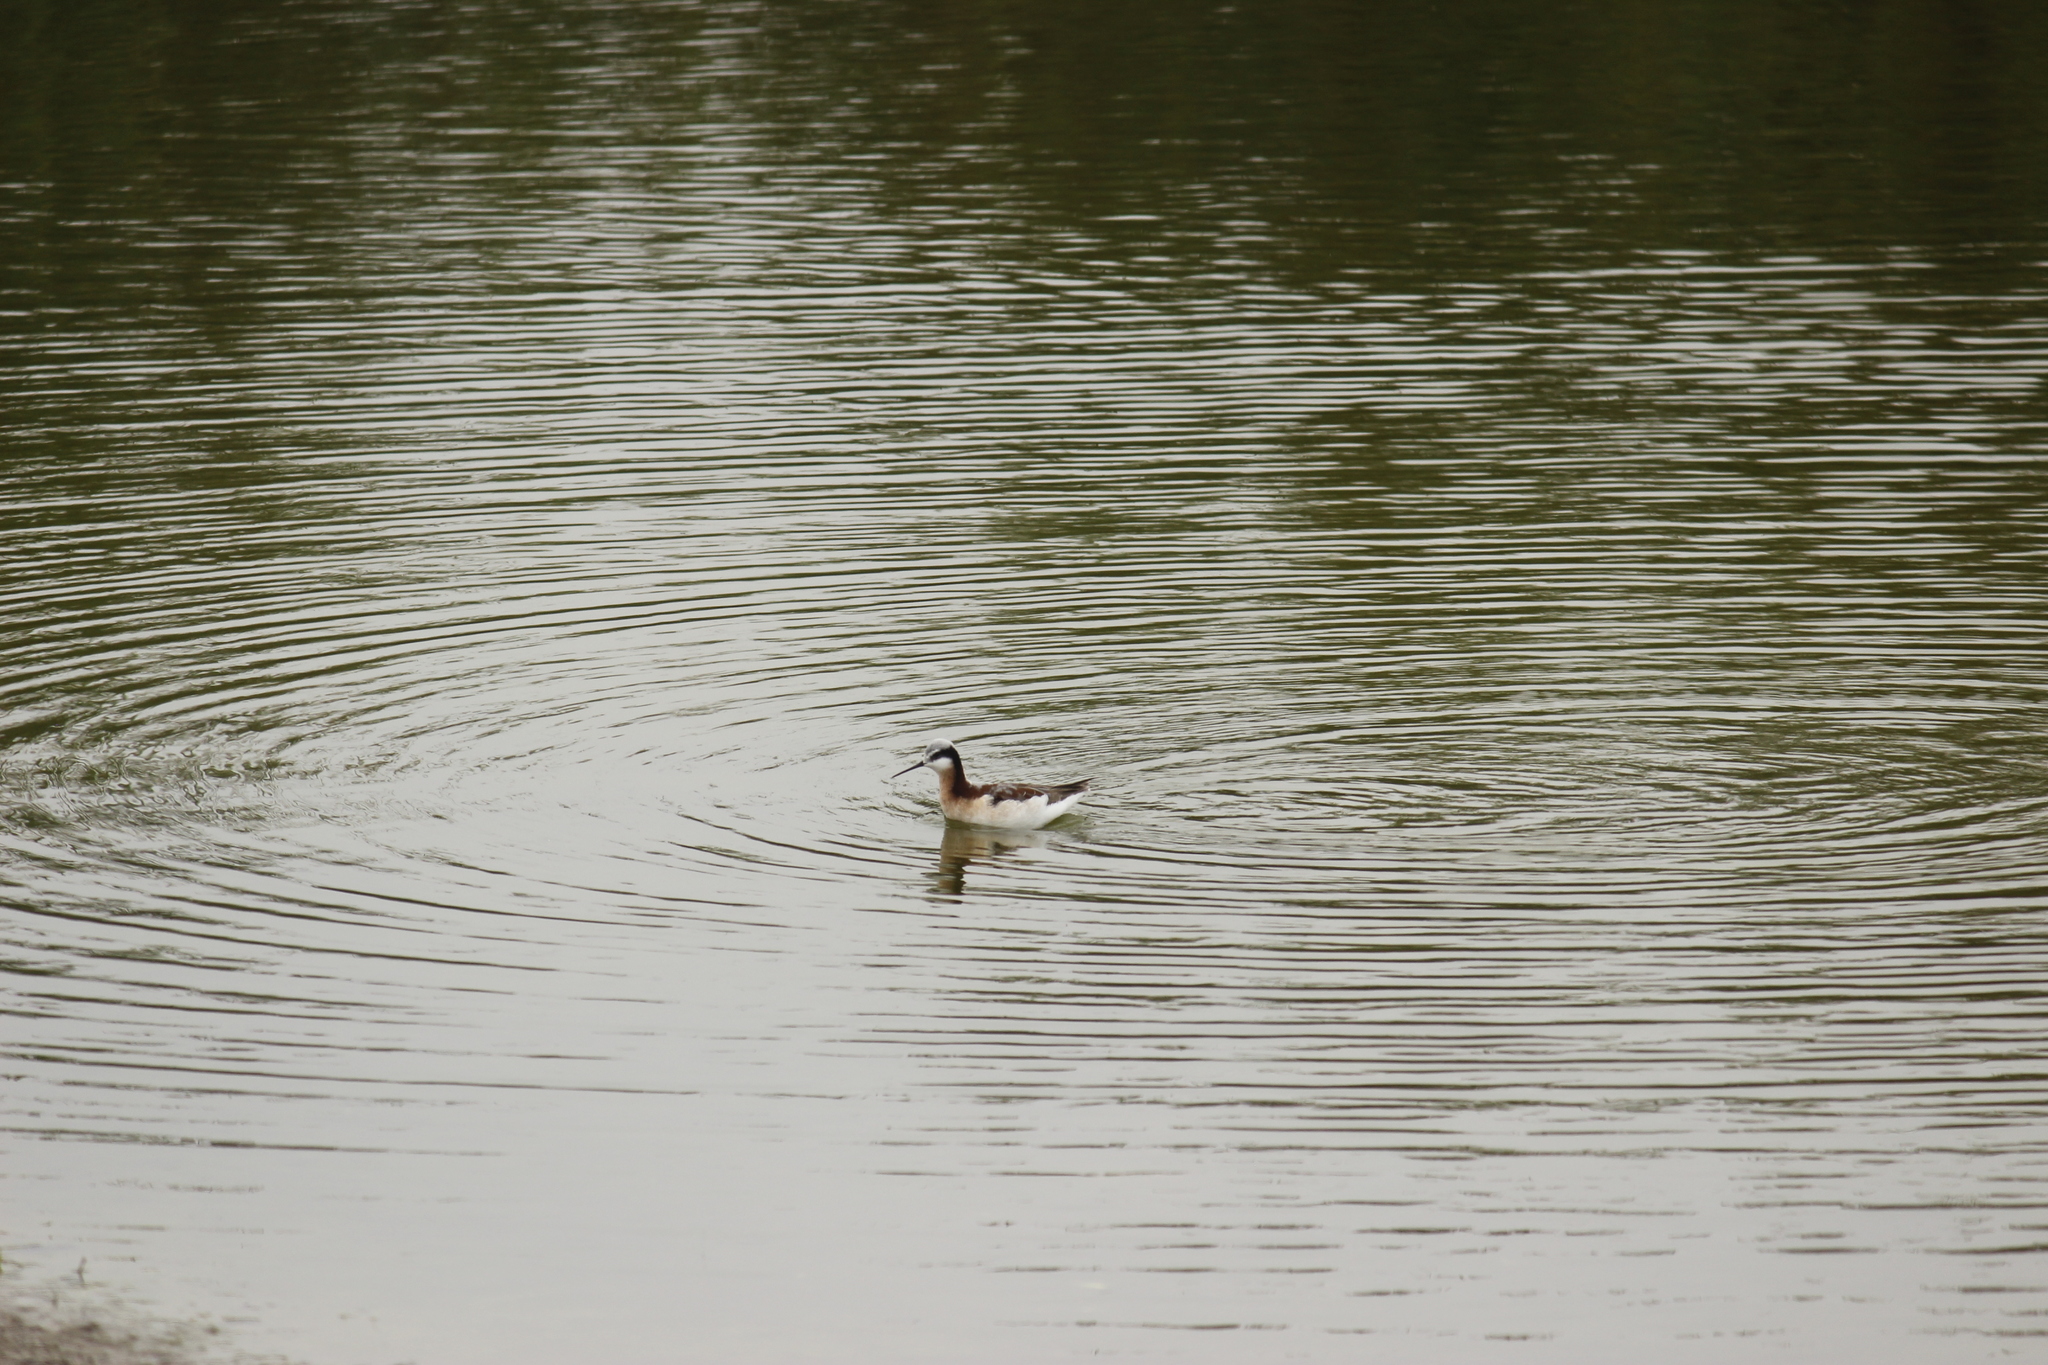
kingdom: Animalia
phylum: Chordata
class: Aves
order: Charadriiformes
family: Scolopacidae
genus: Phalaropus
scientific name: Phalaropus tricolor
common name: Wilson's phalarope
